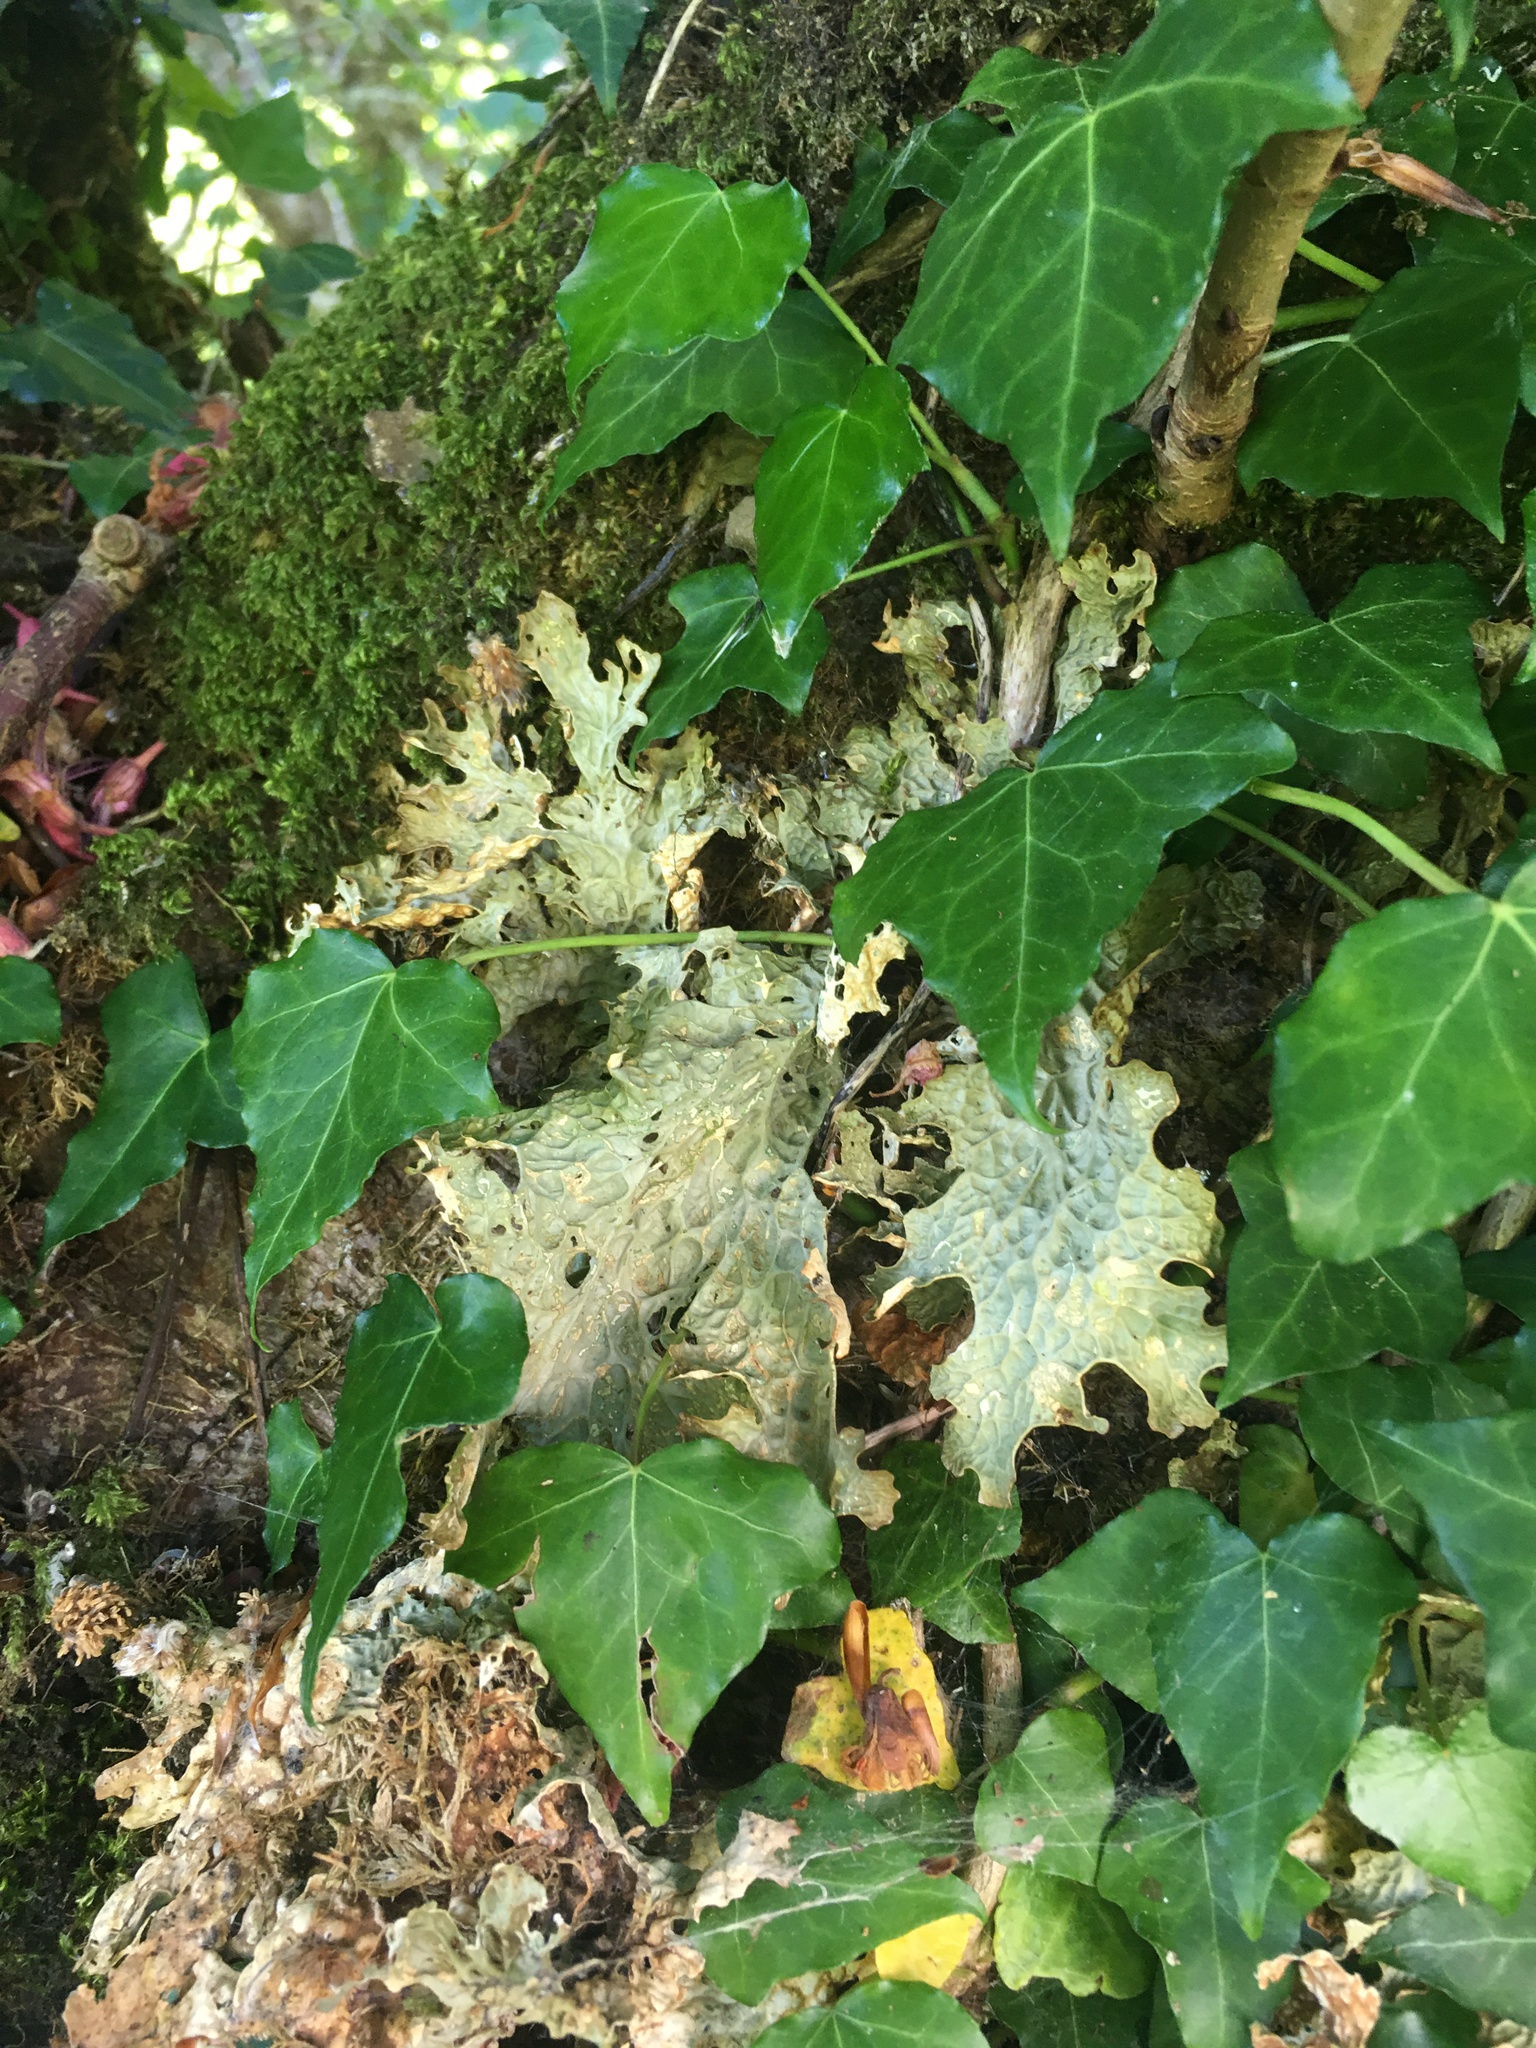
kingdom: Fungi
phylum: Ascomycota
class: Lecanoromycetes
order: Peltigerales
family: Lobariaceae
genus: Lobaria
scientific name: Lobaria pulmonaria
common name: Lungwort
